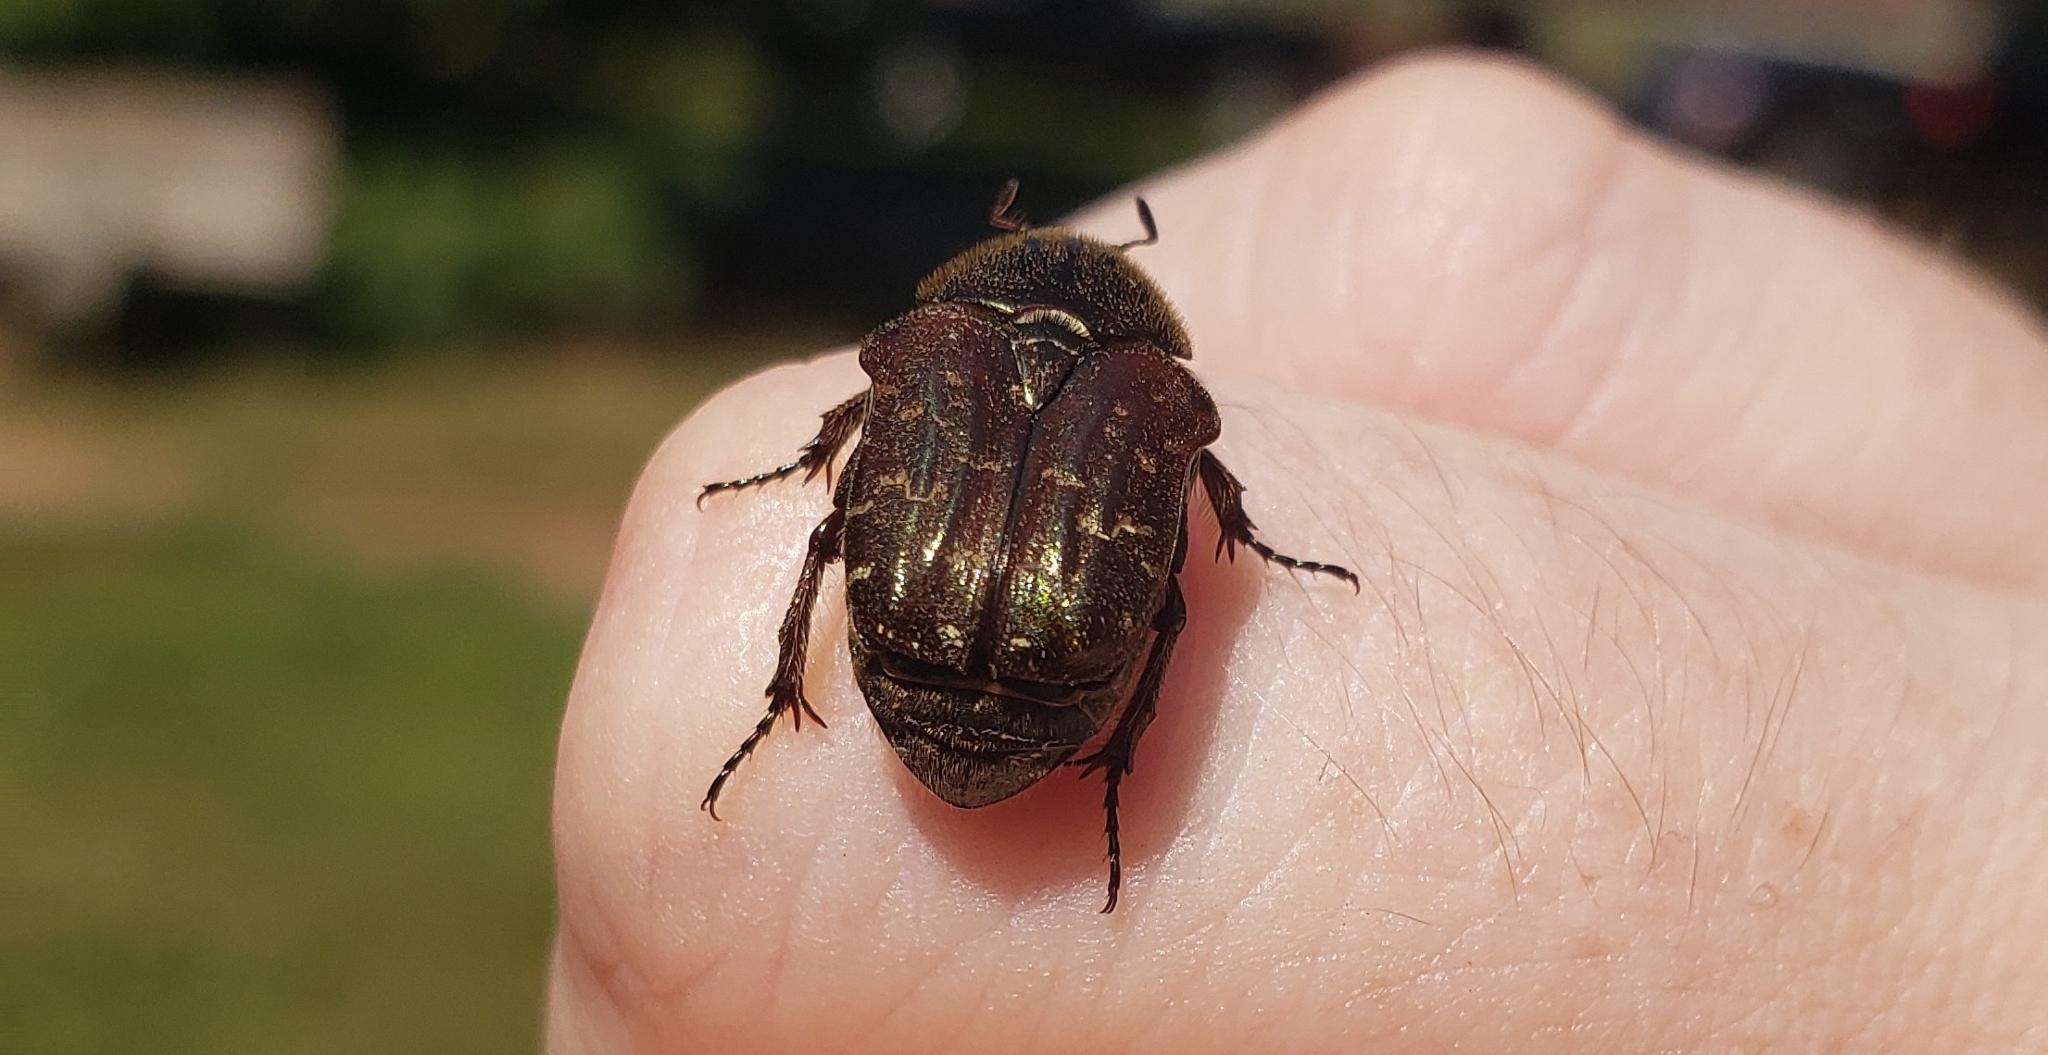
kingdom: Animalia
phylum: Arthropoda
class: Insecta
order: Coleoptera
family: Scarabaeidae
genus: Euphoria
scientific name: Euphoria sepulcralis
